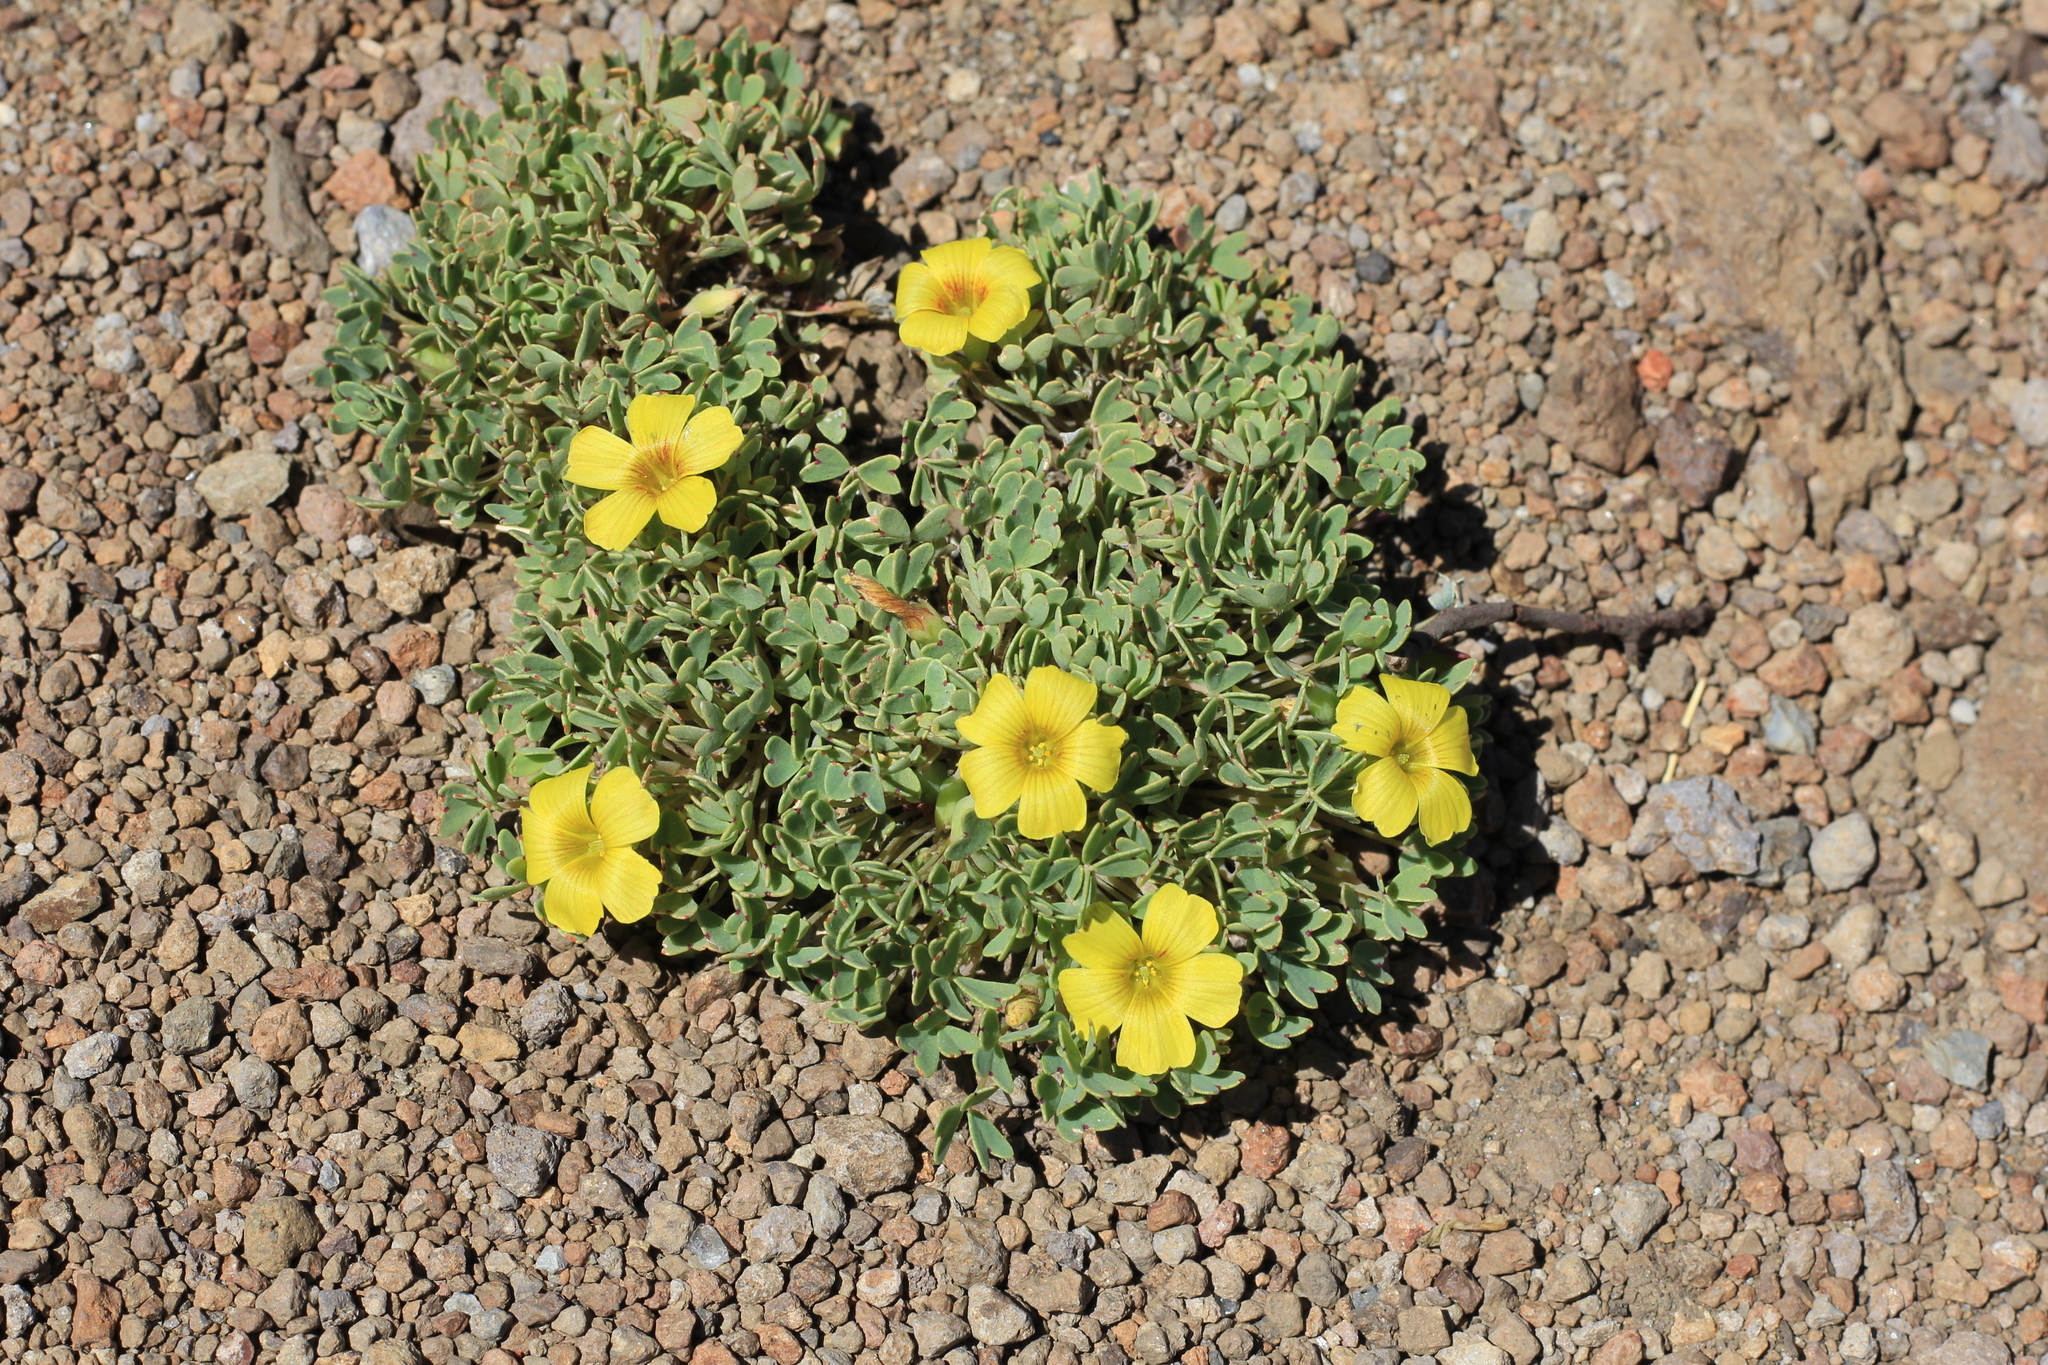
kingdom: Plantae
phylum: Tracheophyta
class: Magnoliopsida
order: Oxalidales
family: Oxalidaceae
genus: Oxalis
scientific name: Oxalis nahuelhuapiensis
